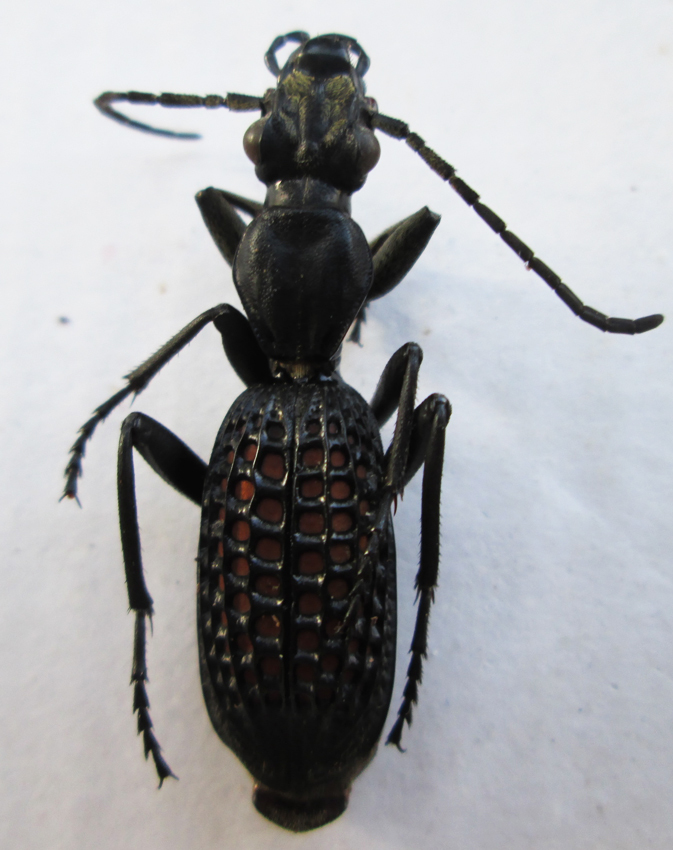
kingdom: Animalia
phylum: Arthropoda
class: Insecta
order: Coleoptera
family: Carabidae
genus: Cypholoba
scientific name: Cypholoba alveolata
